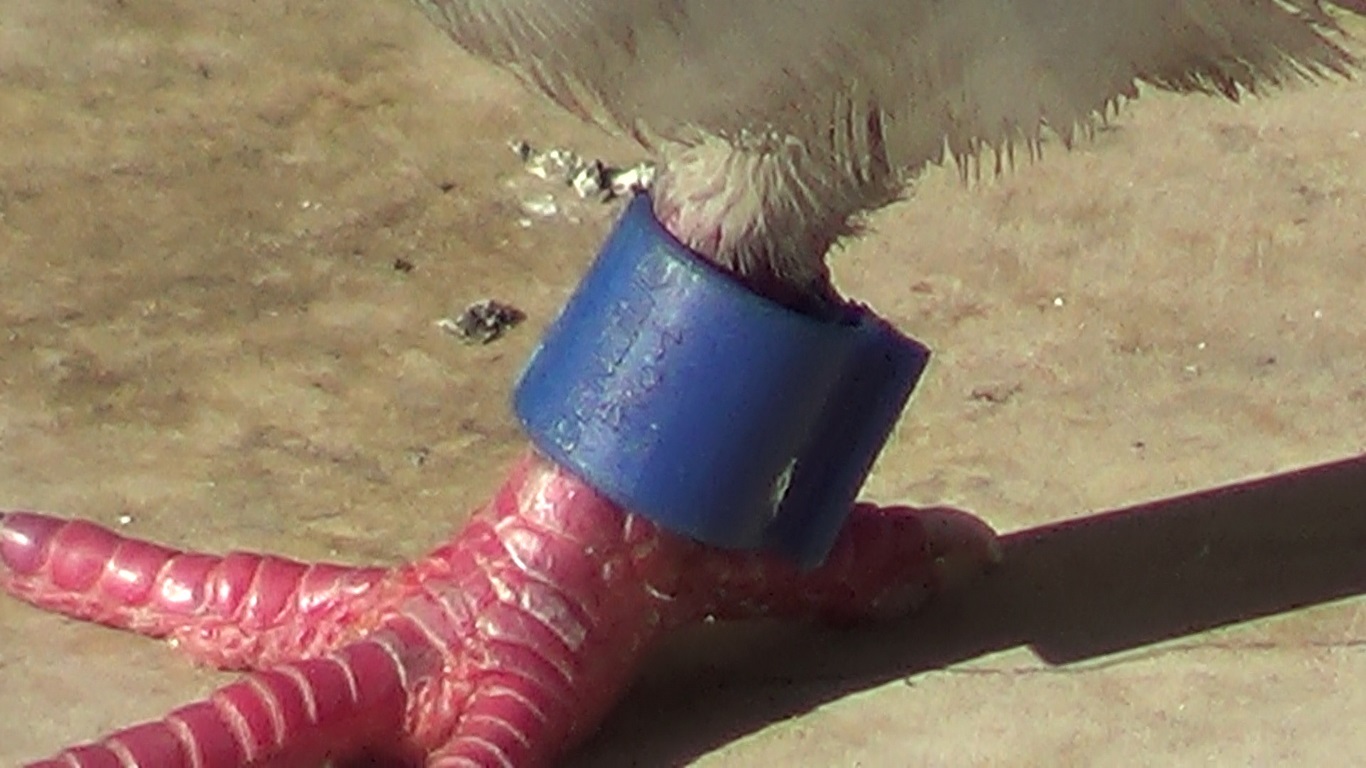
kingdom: Animalia
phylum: Chordata
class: Aves
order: Columbiformes
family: Columbidae
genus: Columba
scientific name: Columba livia
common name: Rock pigeon
